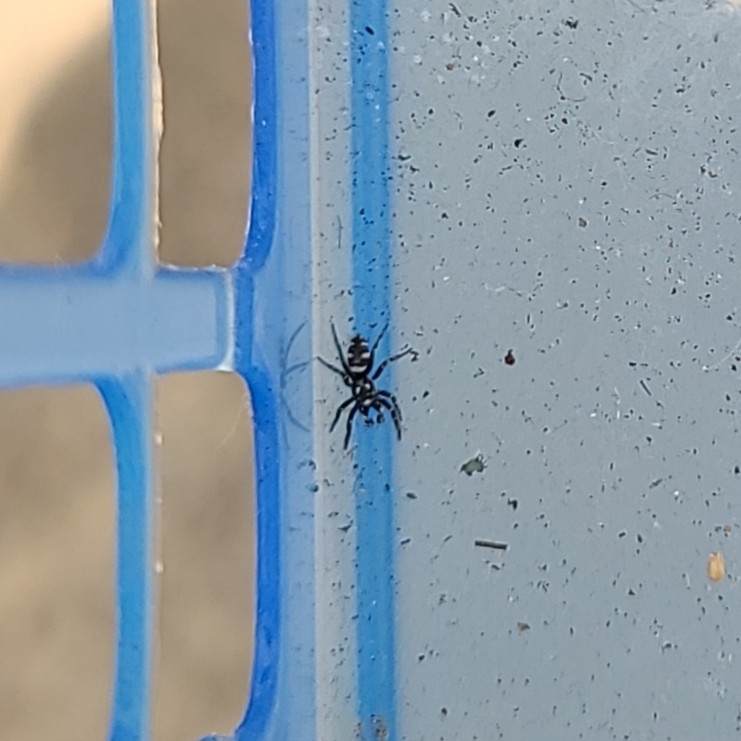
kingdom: Animalia
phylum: Arthropoda
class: Arachnida
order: Araneae
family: Salticidae
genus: Salticus
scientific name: Salticus scenicus
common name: Zebra jumper
